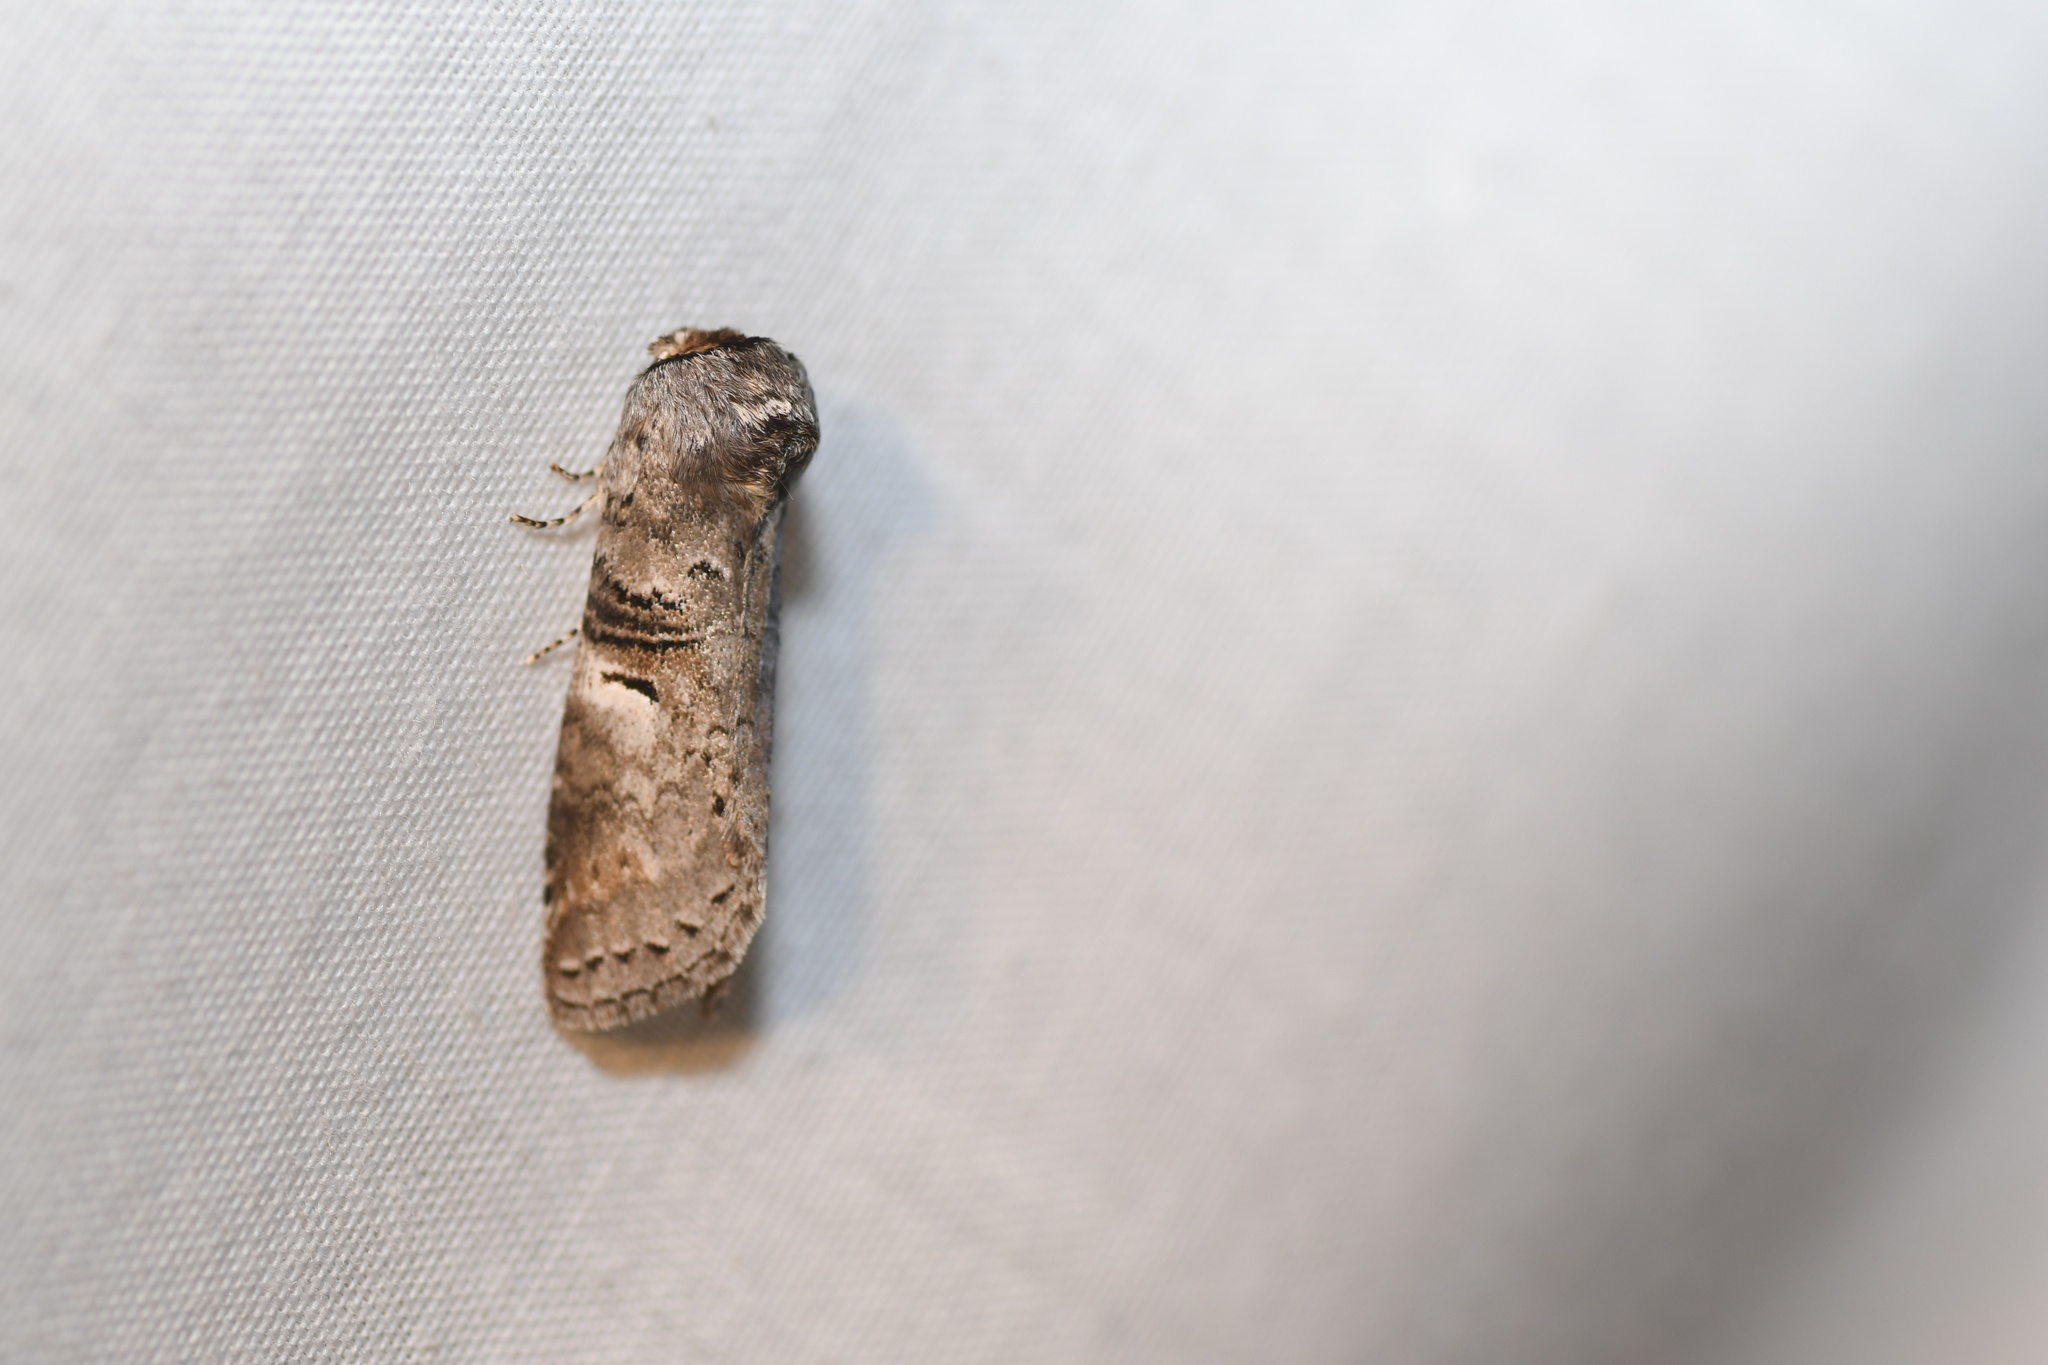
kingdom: Animalia
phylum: Arthropoda
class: Insecta
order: Lepidoptera
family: Notodontidae
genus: Ellida
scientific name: Ellida caniplaga
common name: Linden prominent
